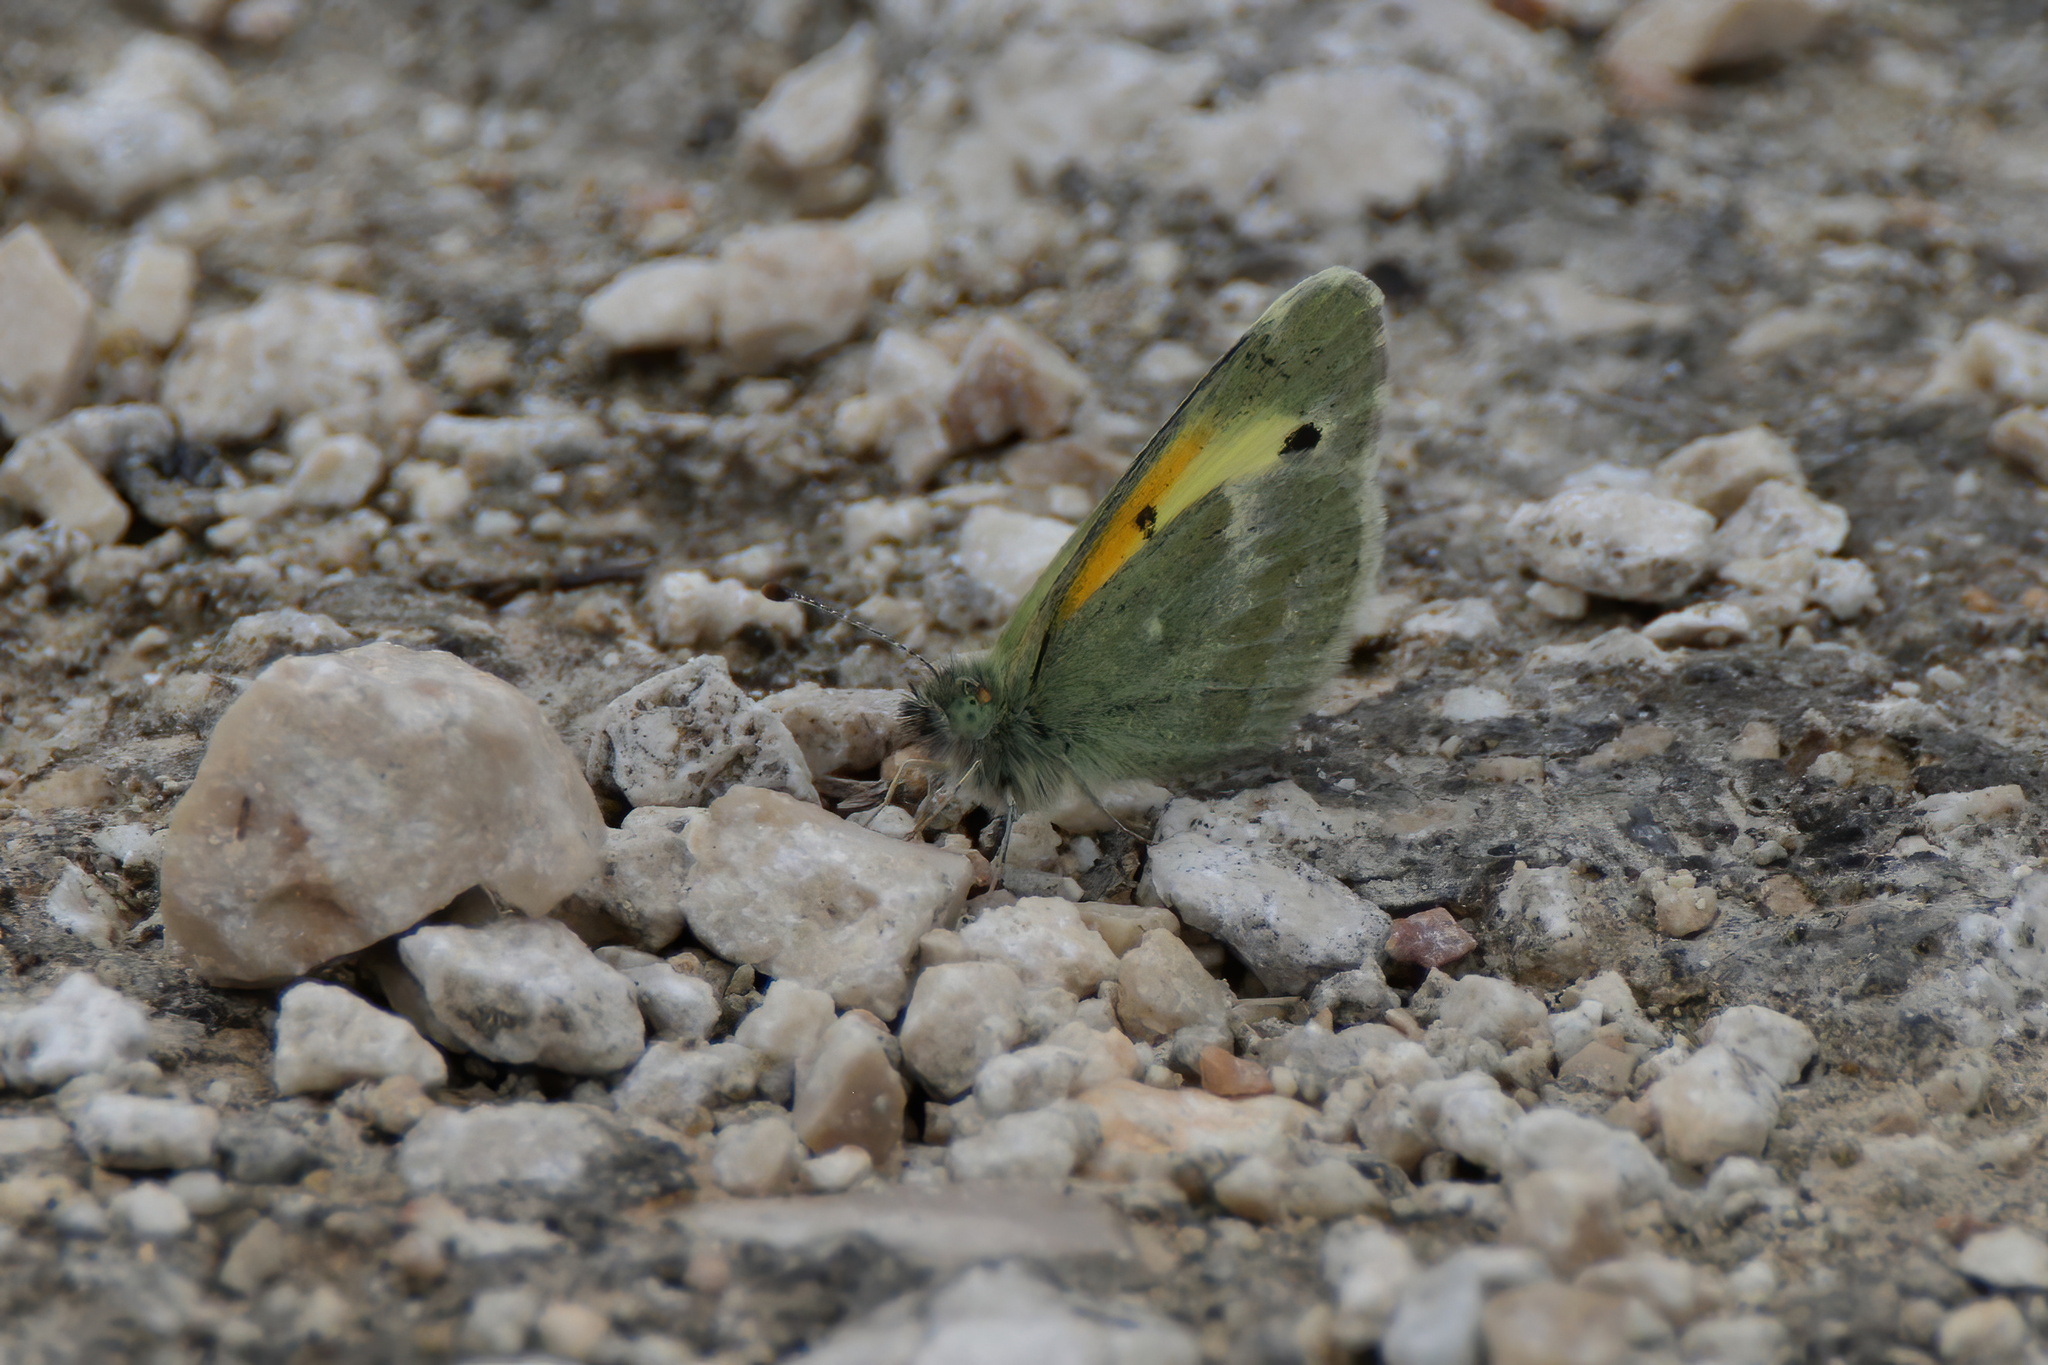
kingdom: Animalia
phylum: Arthropoda
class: Insecta
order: Lepidoptera
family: Pieridae
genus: Nathalis
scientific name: Nathalis iole
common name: Dainty sulphur
